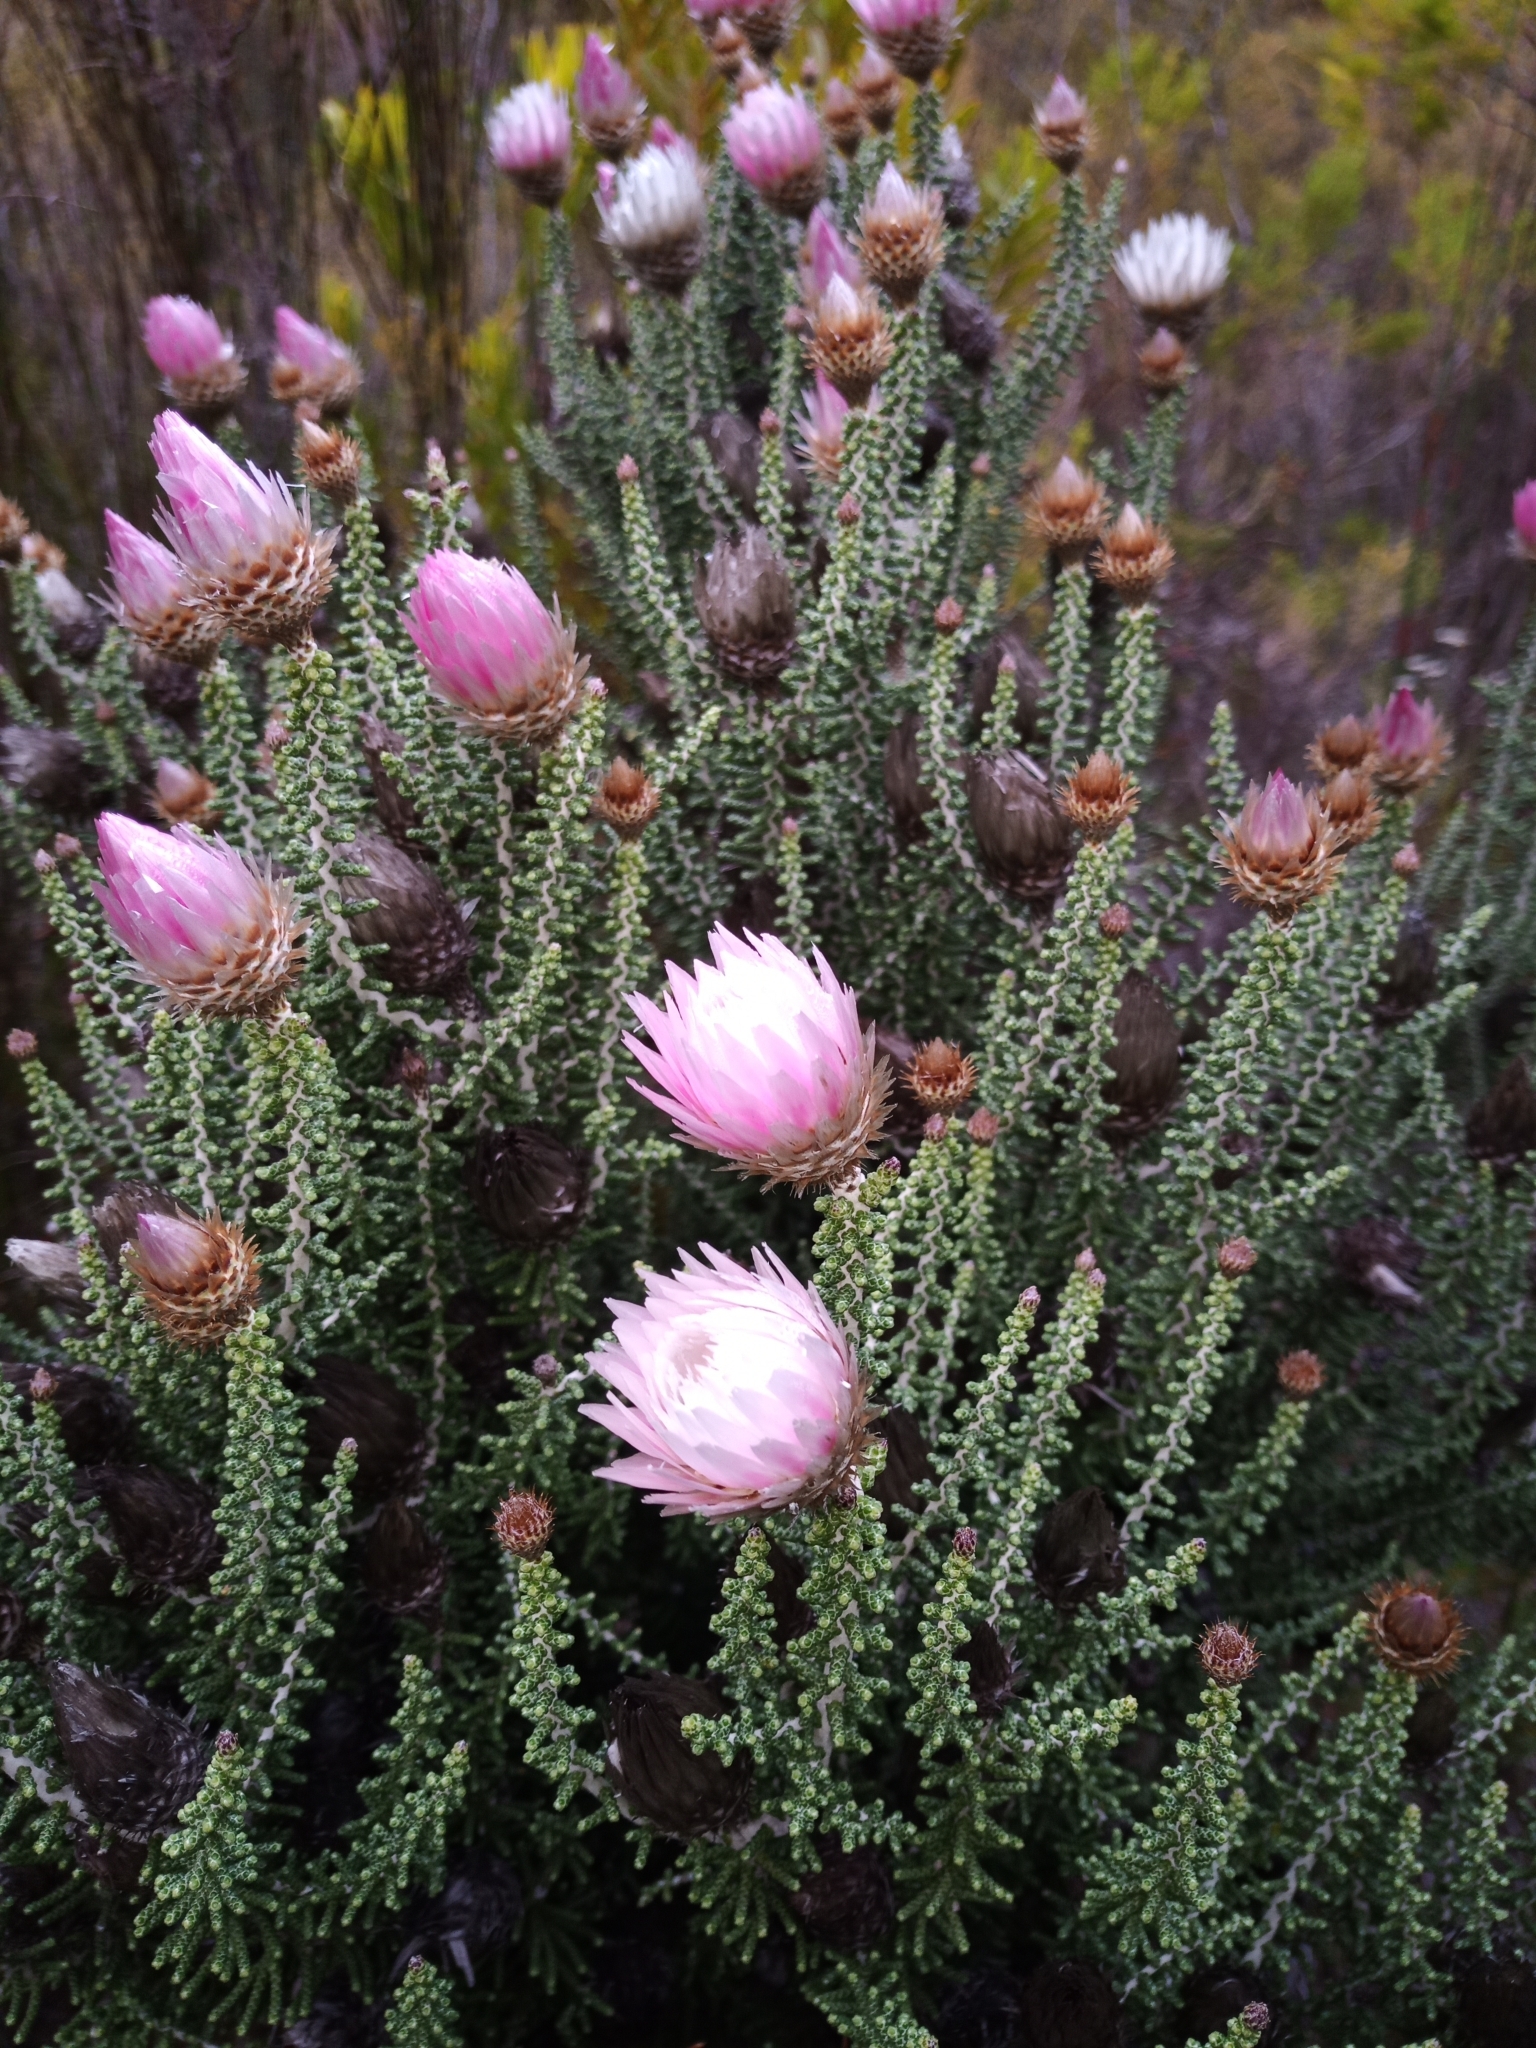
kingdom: Plantae
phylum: Tracheophyta
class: Magnoliopsida
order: Asterales
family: Asteraceae
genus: Phaenocoma
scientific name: Phaenocoma prolifera
